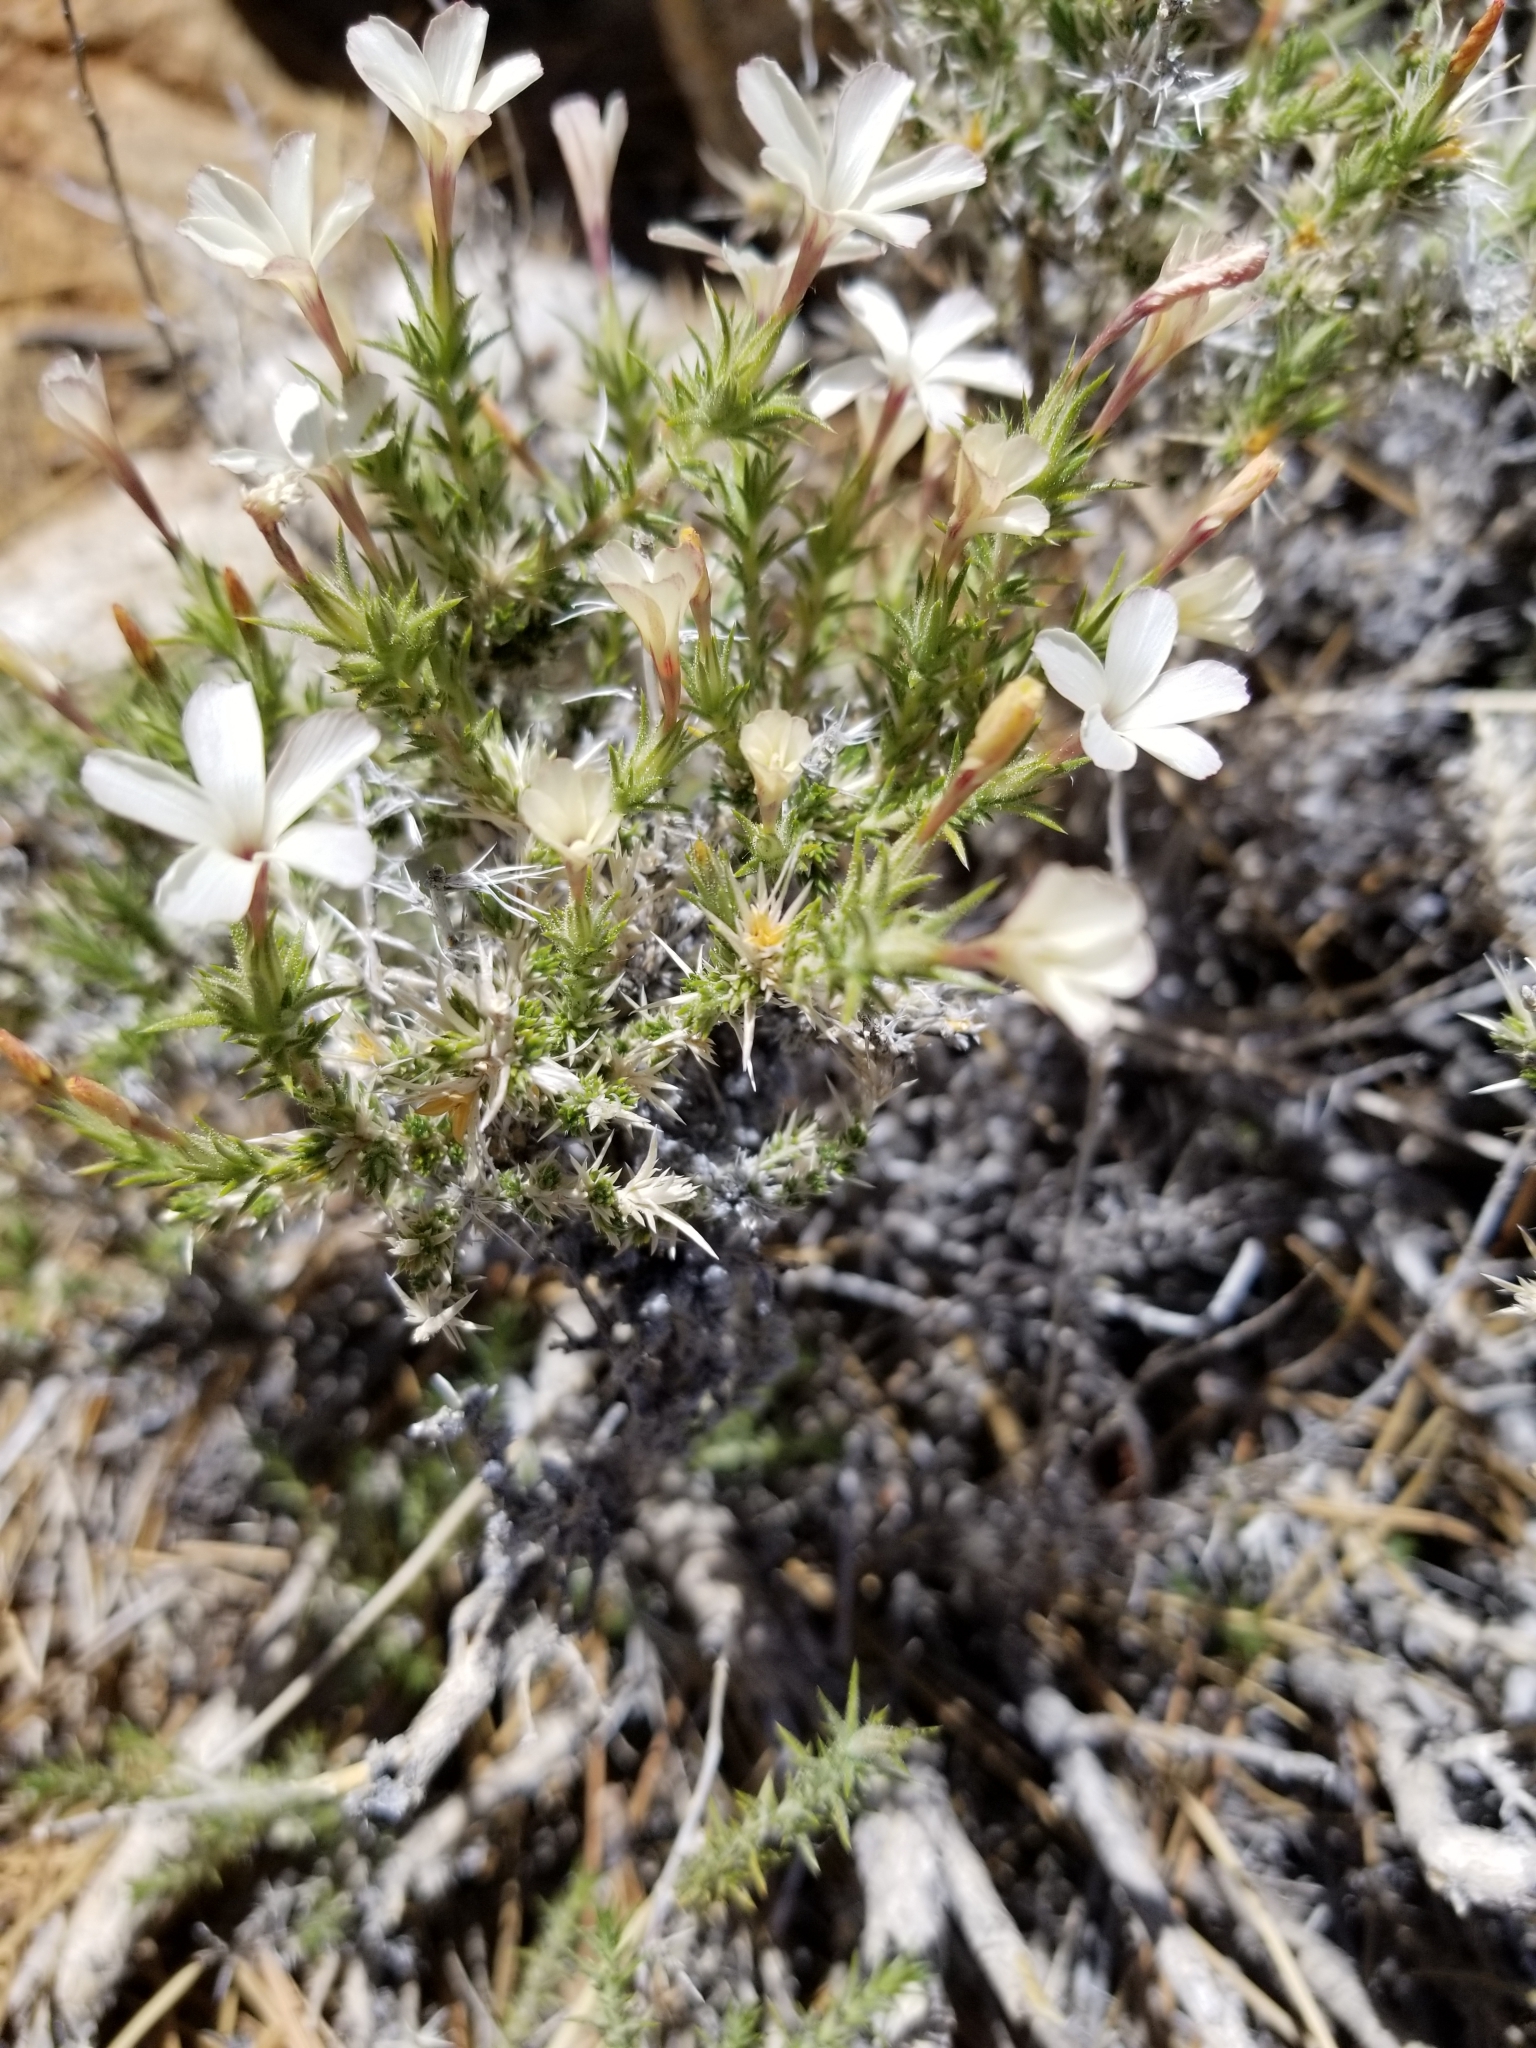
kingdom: Plantae
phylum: Tracheophyta
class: Magnoliopsida
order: Ericales
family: Polemoniaceae
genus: Linanthus
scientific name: Linanthus pungens
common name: Granite prickly phlox
